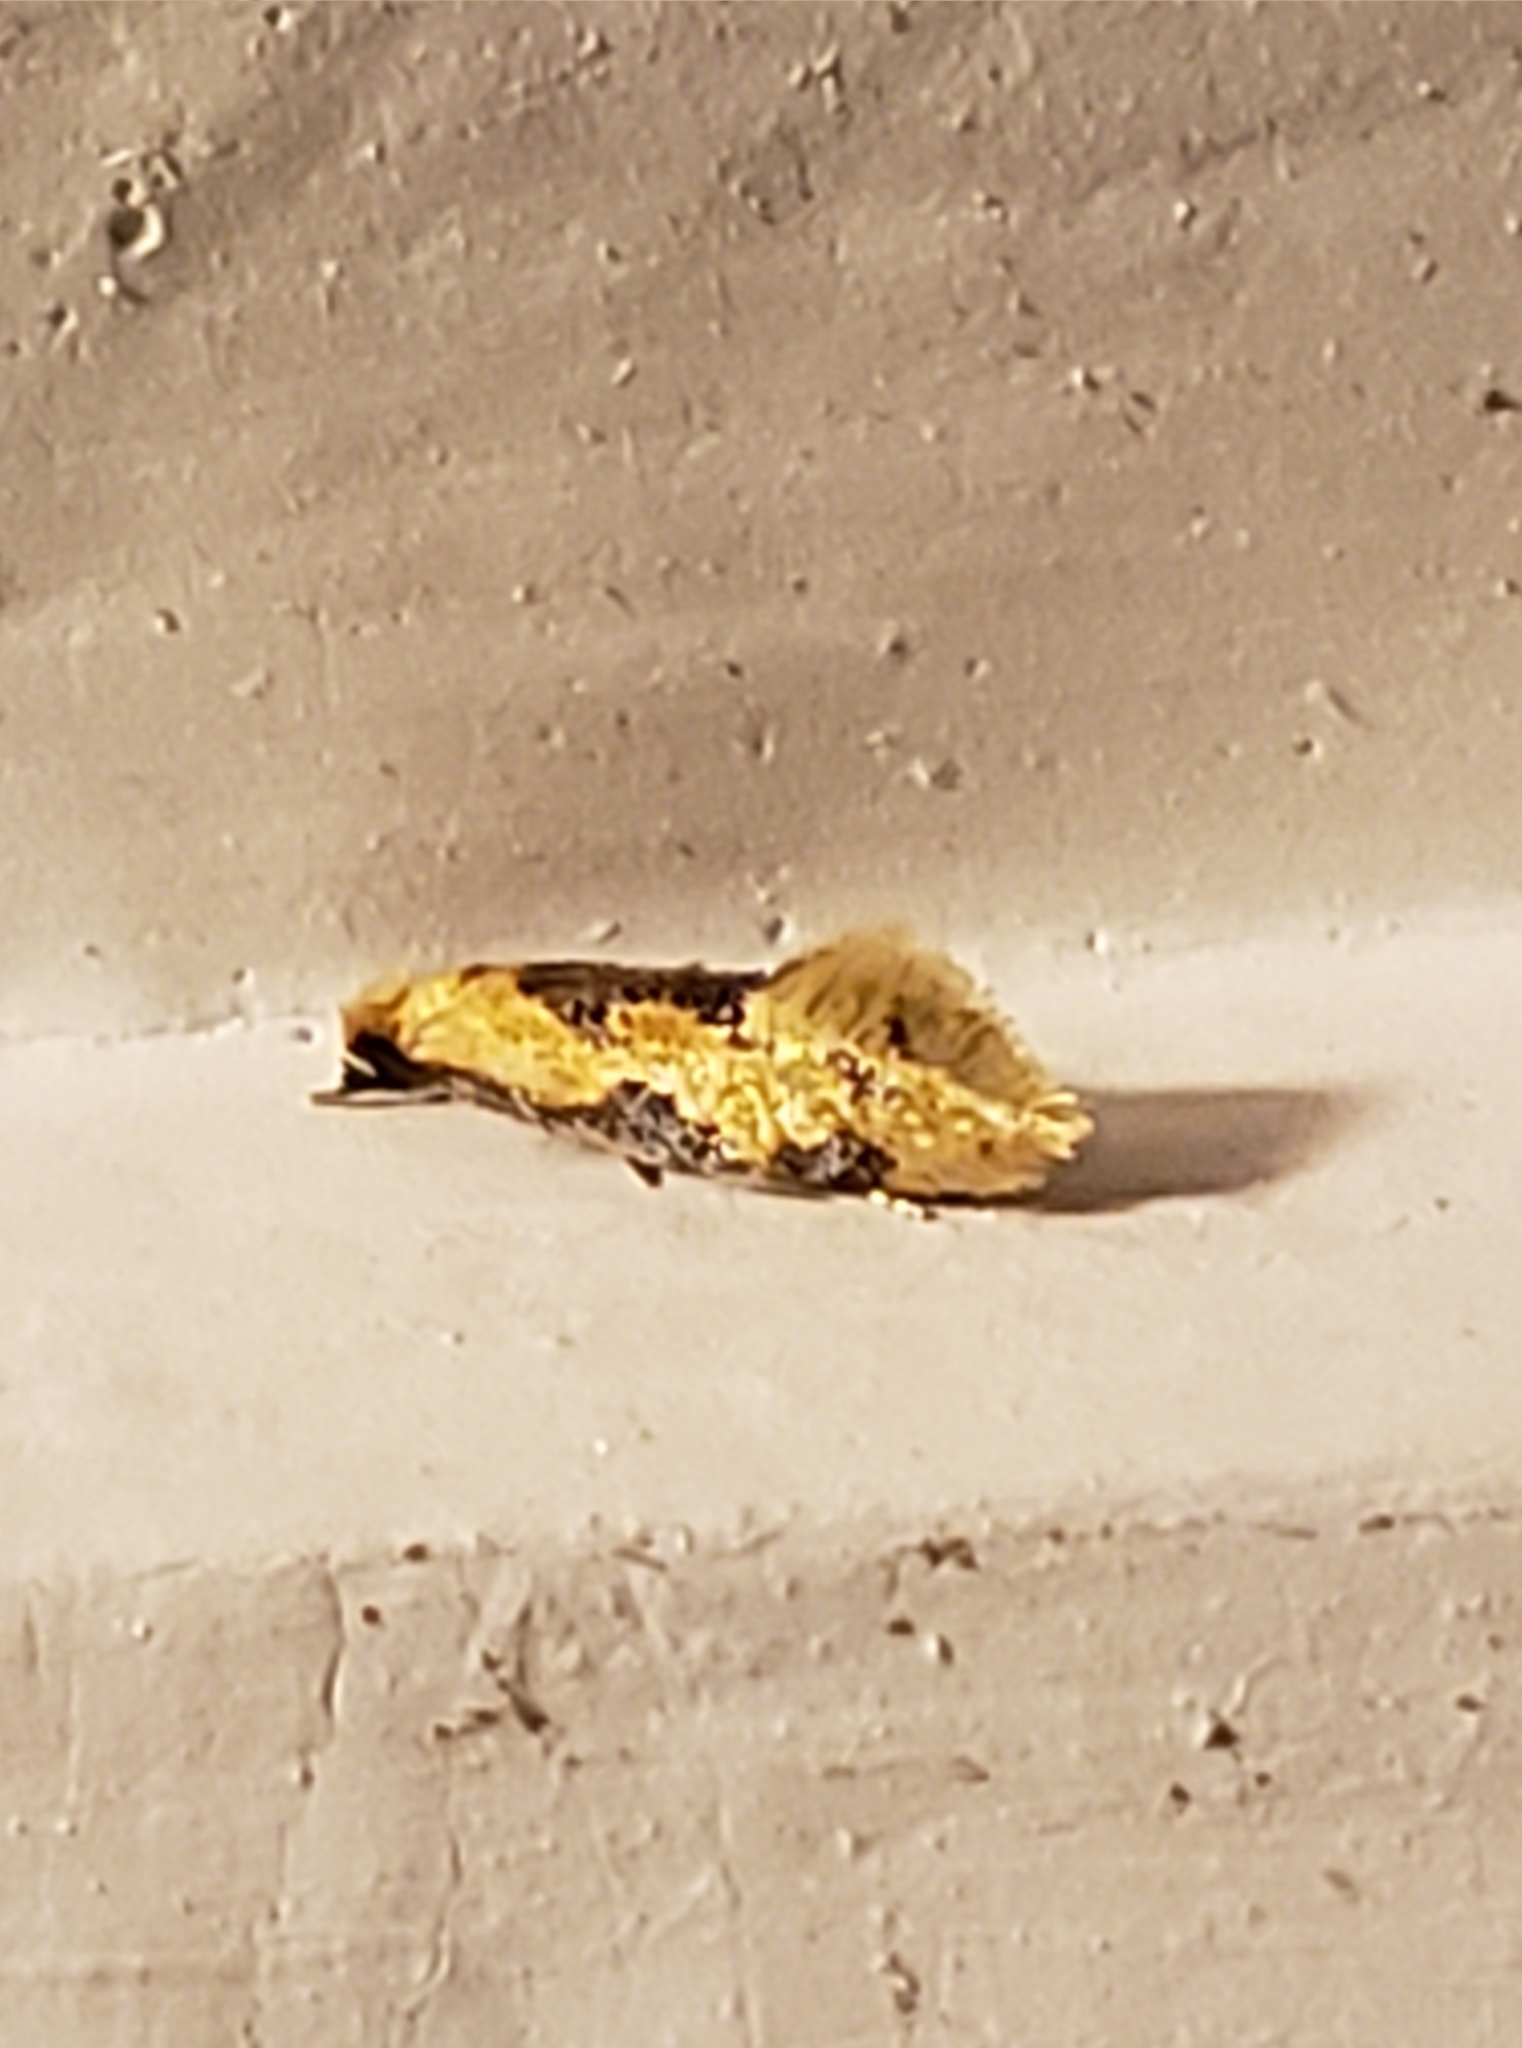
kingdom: Animalia
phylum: Arthropoda
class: Insecta
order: Lepidoptera
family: Meessiidae
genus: Hybroma
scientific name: Hybroma servulella
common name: Yellow wave moth
